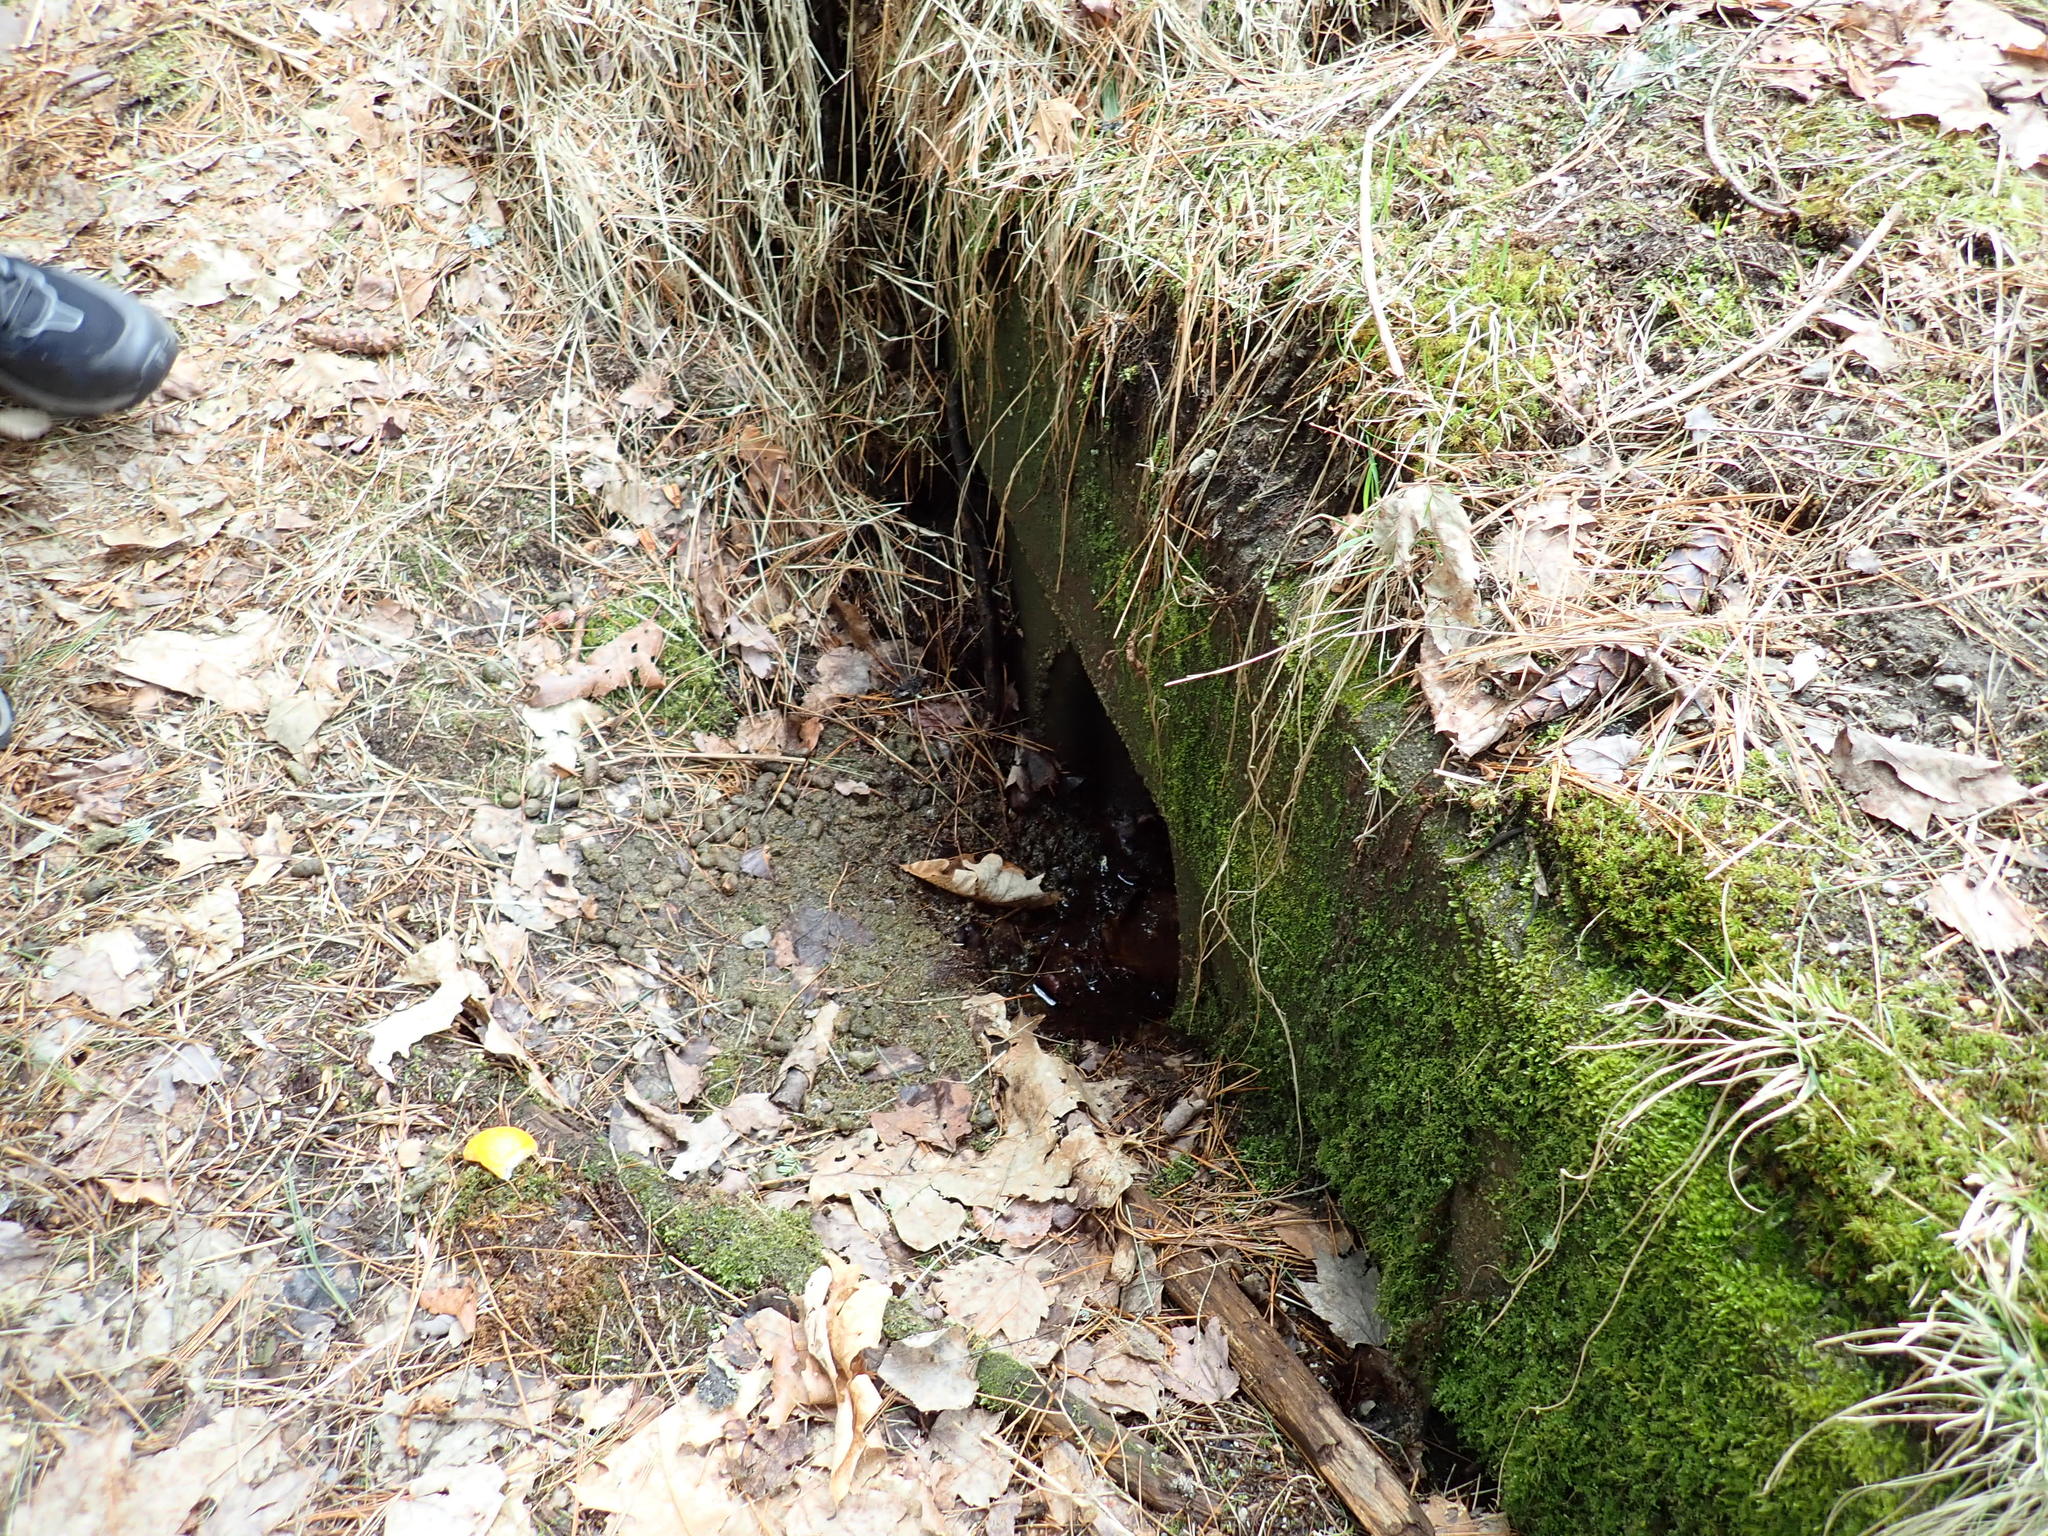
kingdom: Animalia
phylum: Chordata
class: Mammalia
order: Rodentia
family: Erethizontidae
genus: Erethizon
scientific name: Erethizon dorsatus
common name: North american porcupine
